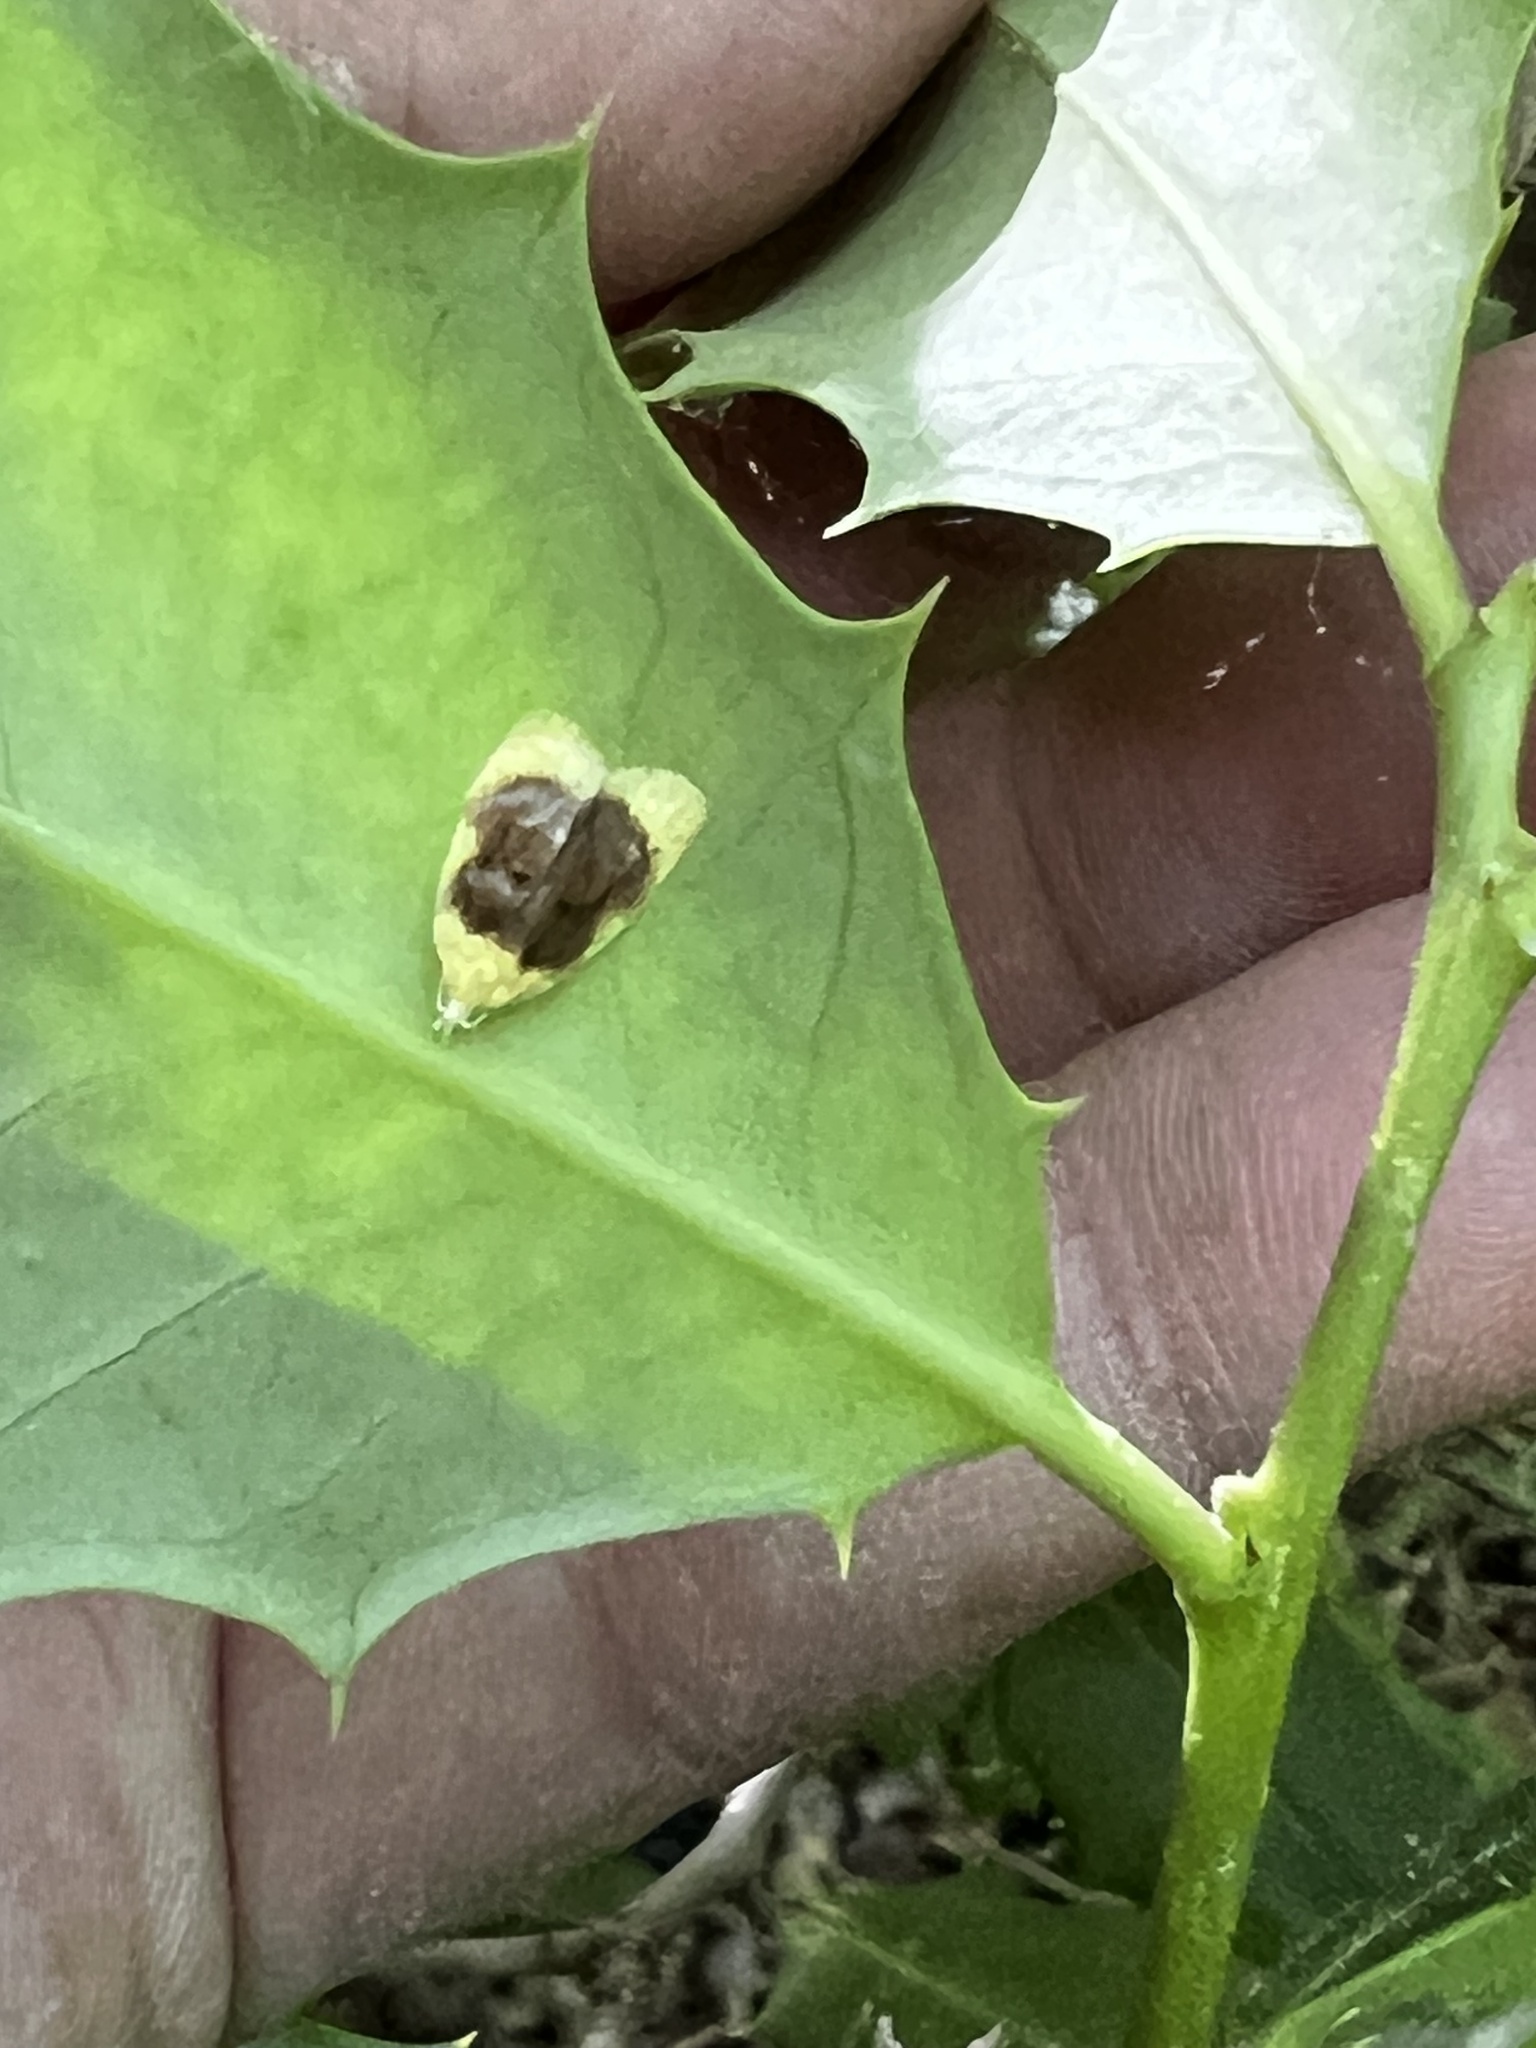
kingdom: Animalia
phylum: Arthropoda
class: Insecta
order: Lepidoptera
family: Tortricidae
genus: Acleris
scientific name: Acleris semipurpurana
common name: Oak leaftier moth
